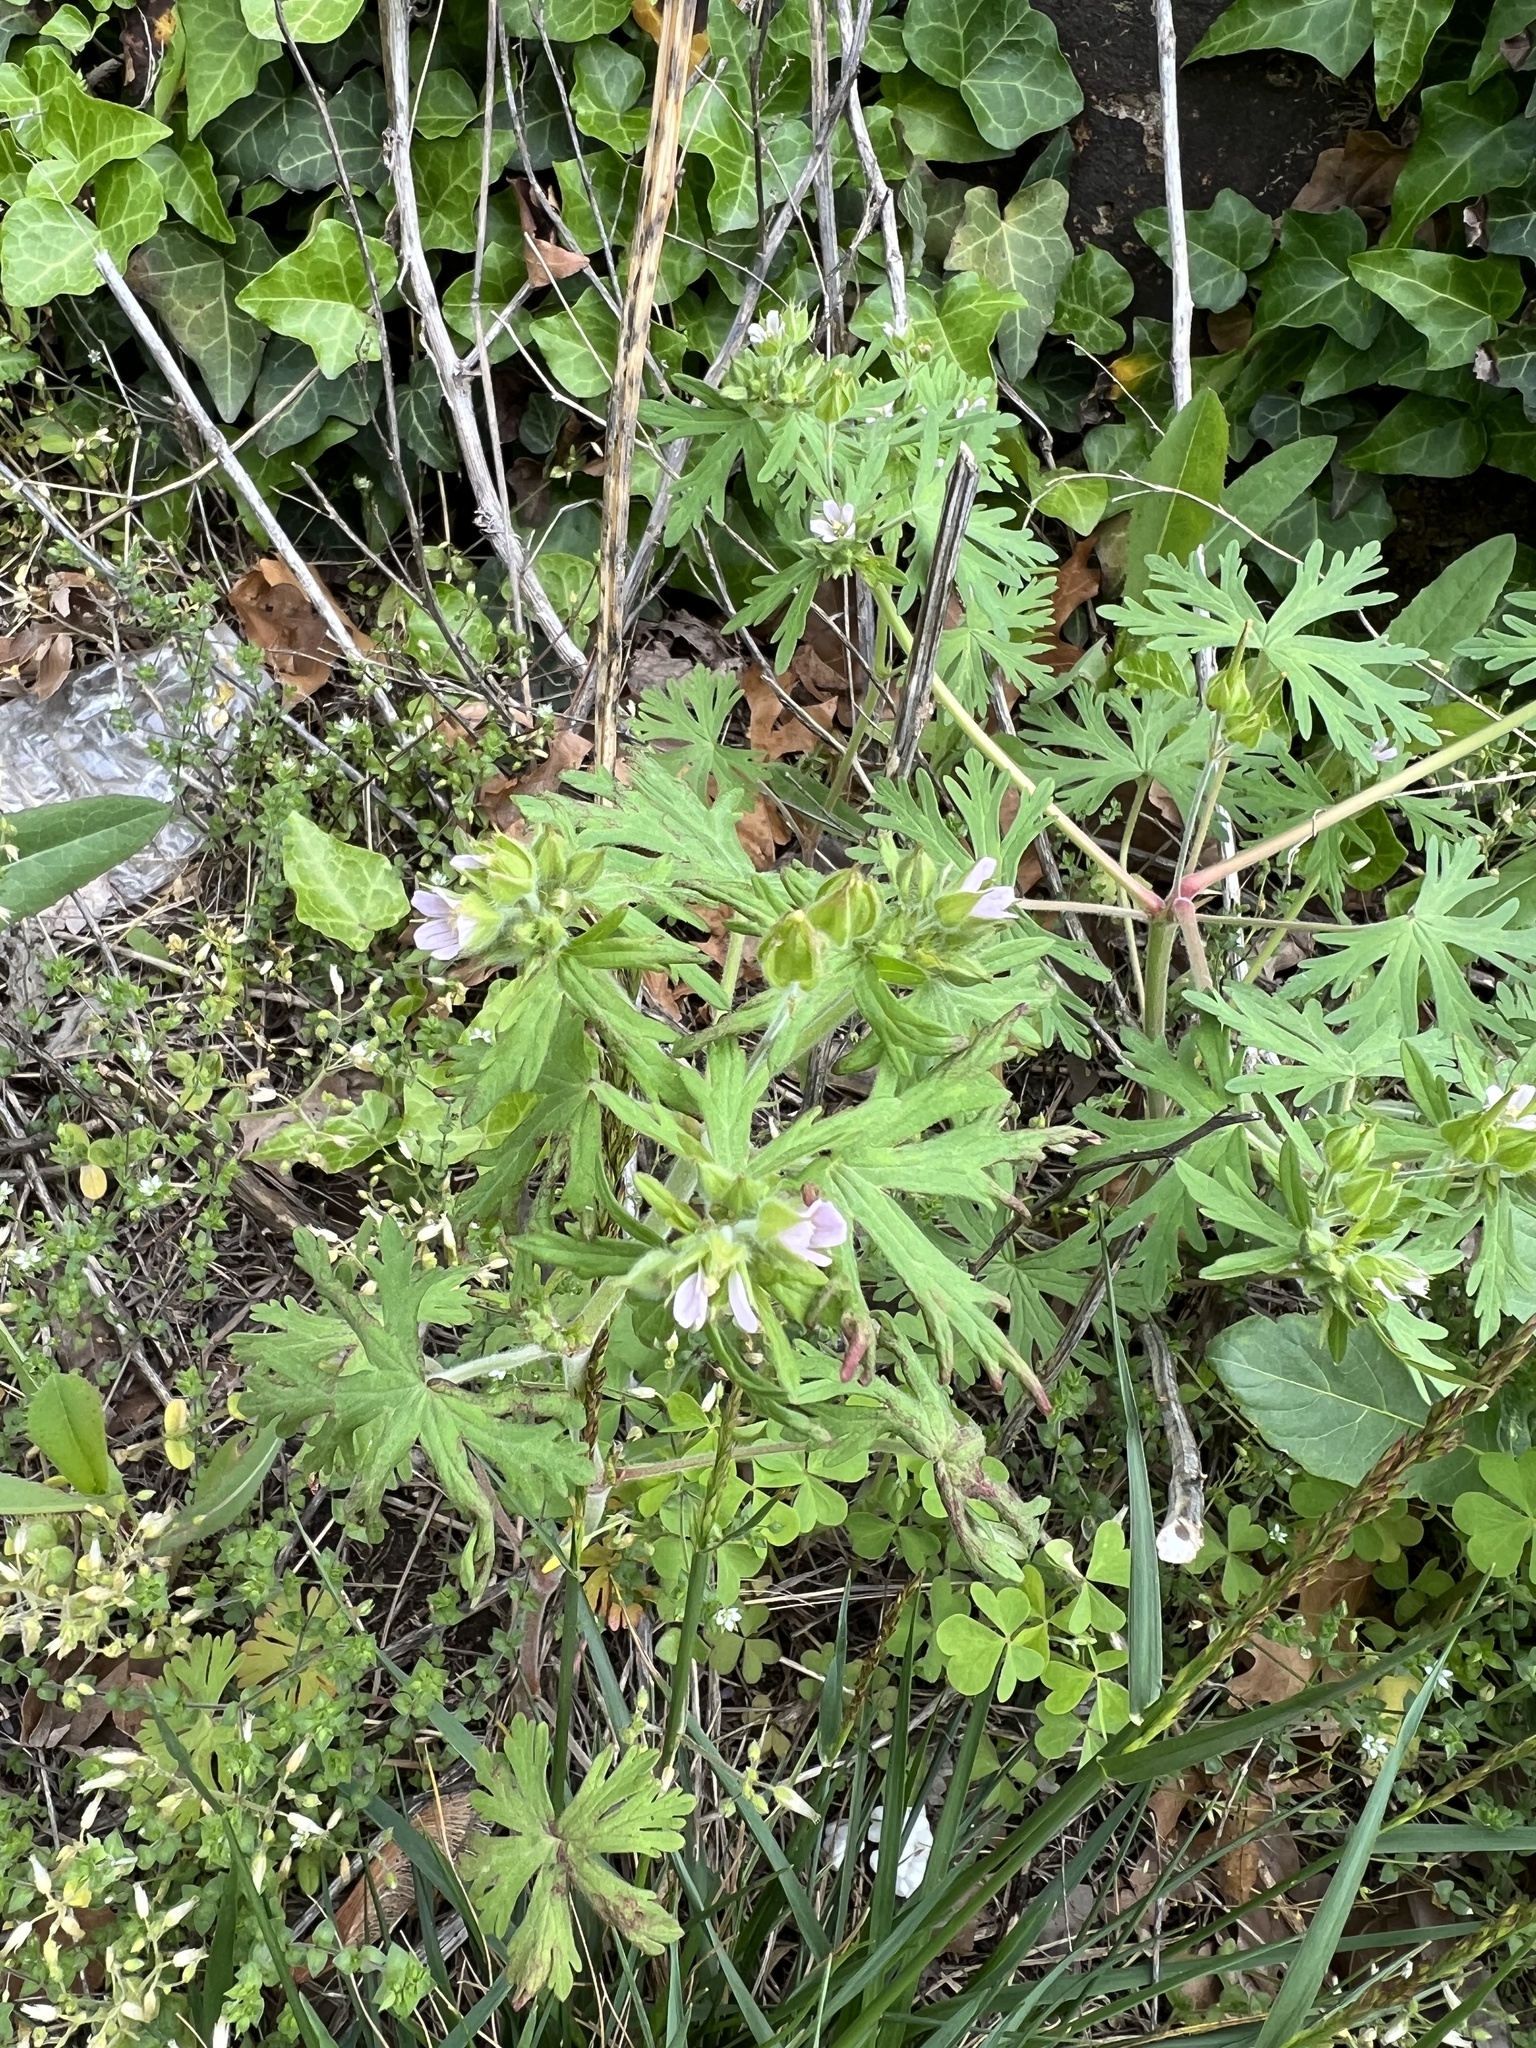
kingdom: Plantae
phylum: Tracheophyta
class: Magnoliopsida
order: Geraniales
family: Geraniaceae
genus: Geranium
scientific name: Geranium carolinianum
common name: Carolina crane's-bill
